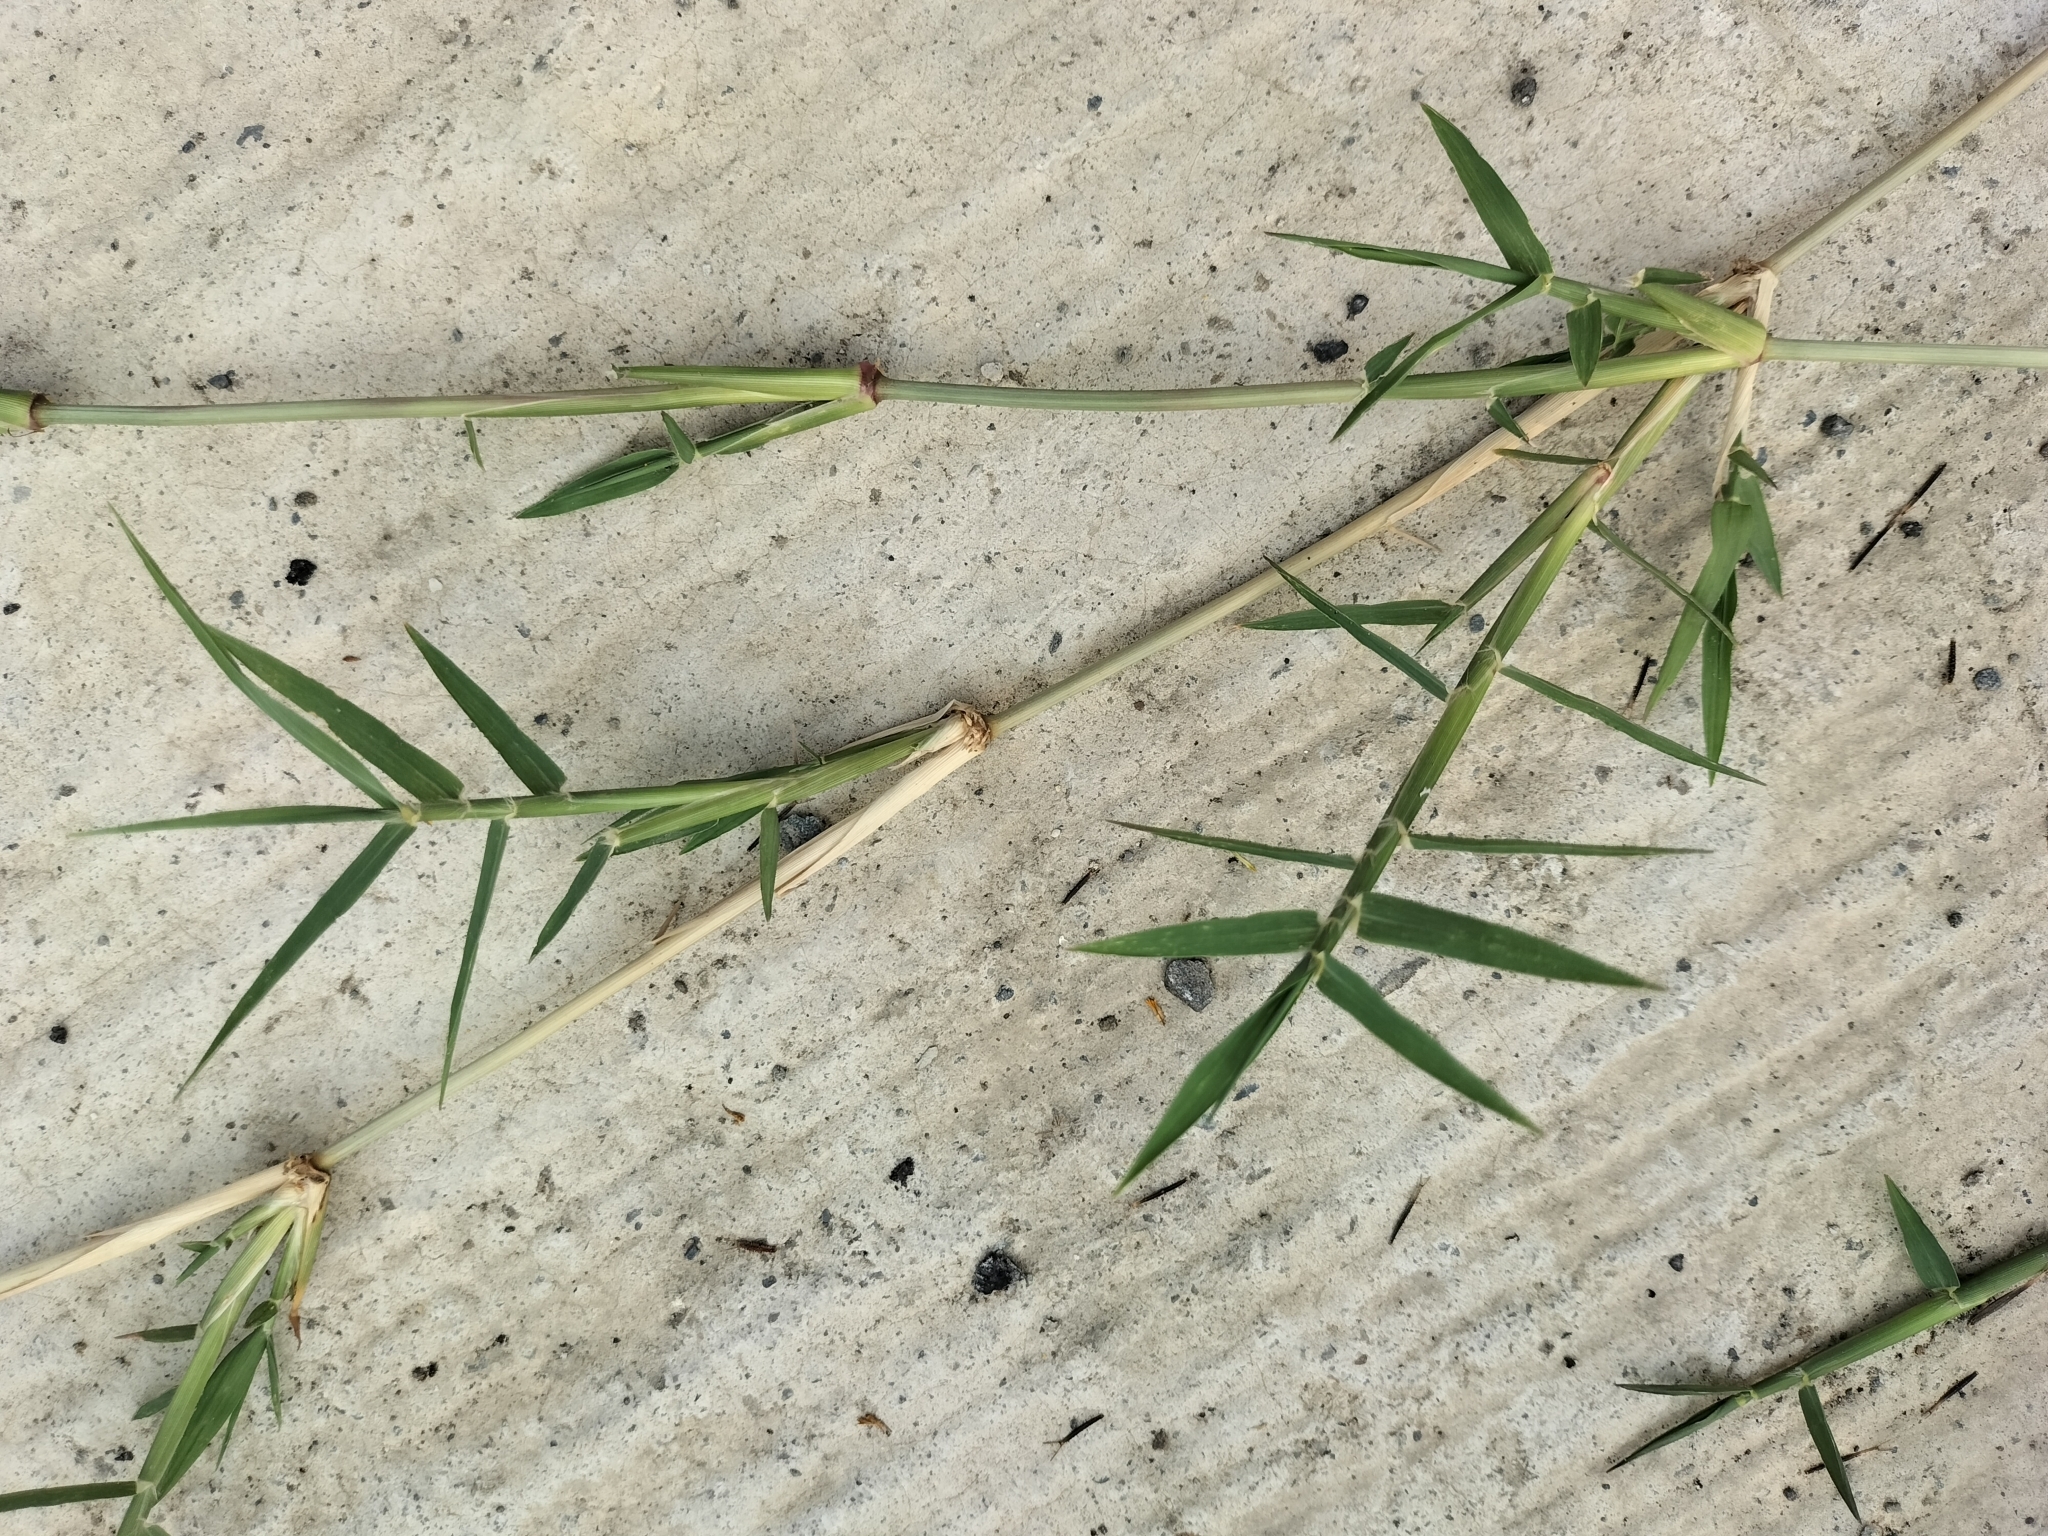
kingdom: Plantae
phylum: Tracheophyta
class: Liliopsida
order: Poales
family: Poaceae
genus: Cynodon
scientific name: Cynodon dactylon
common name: Bermuda grass
